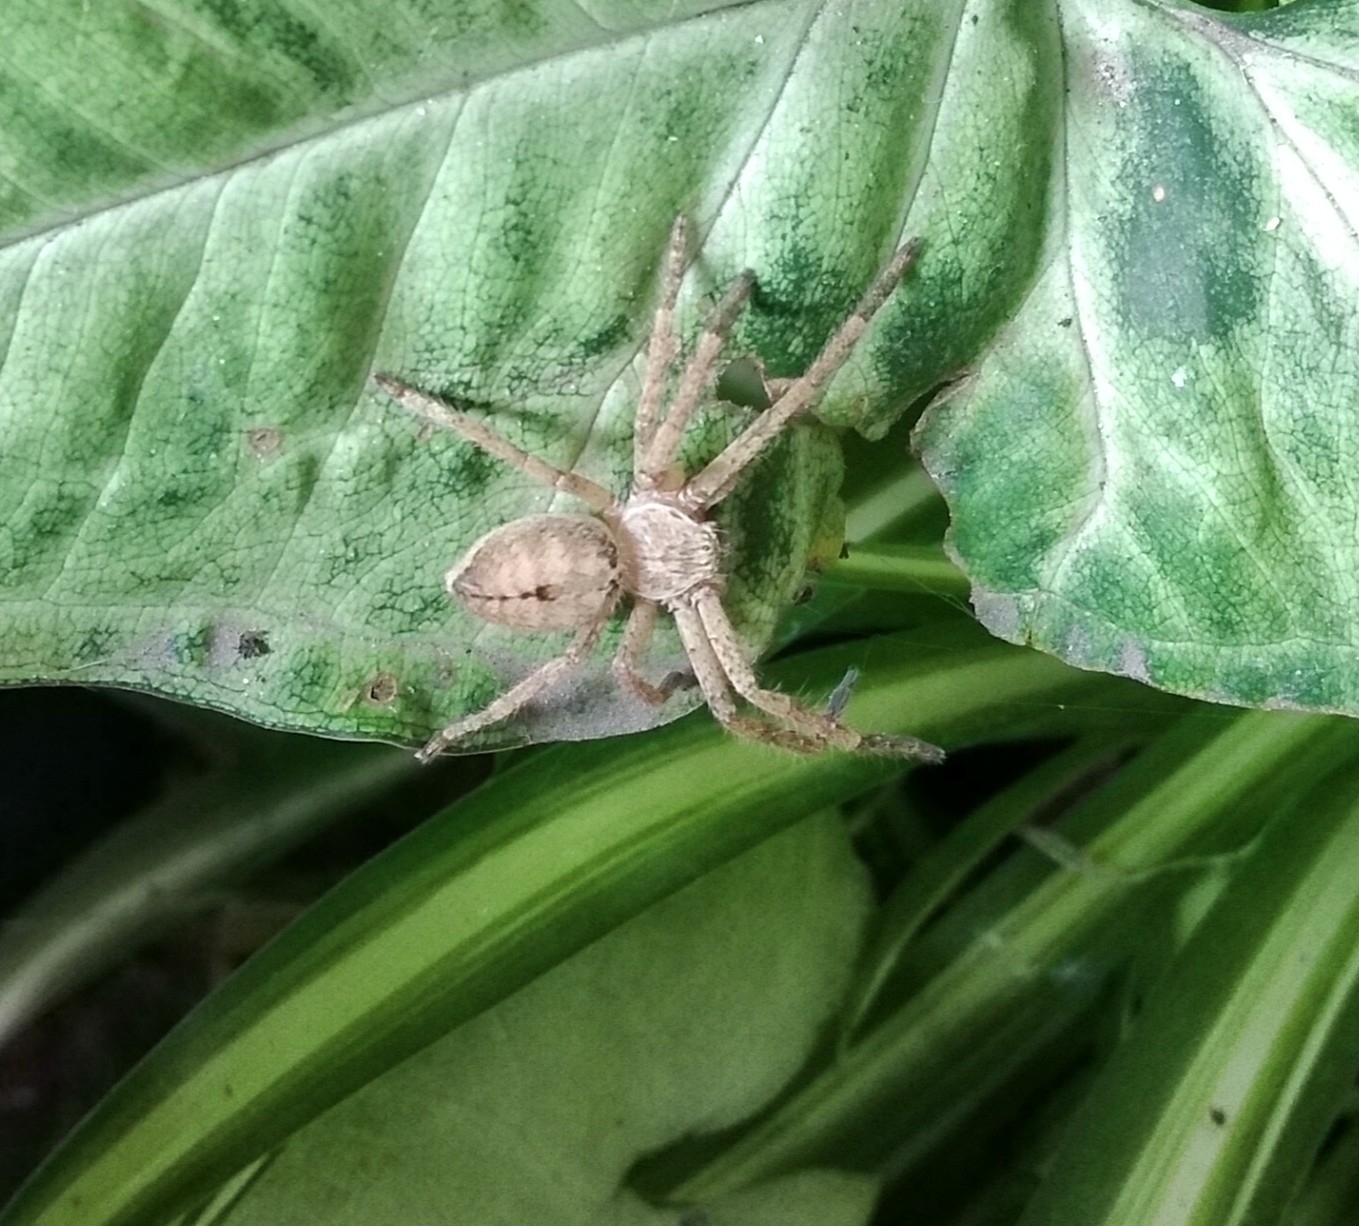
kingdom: Animalia
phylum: Arthropoda
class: Arachnida
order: Araneae
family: Sparassidae
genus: Polybetes
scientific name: Polybetes rapidus
